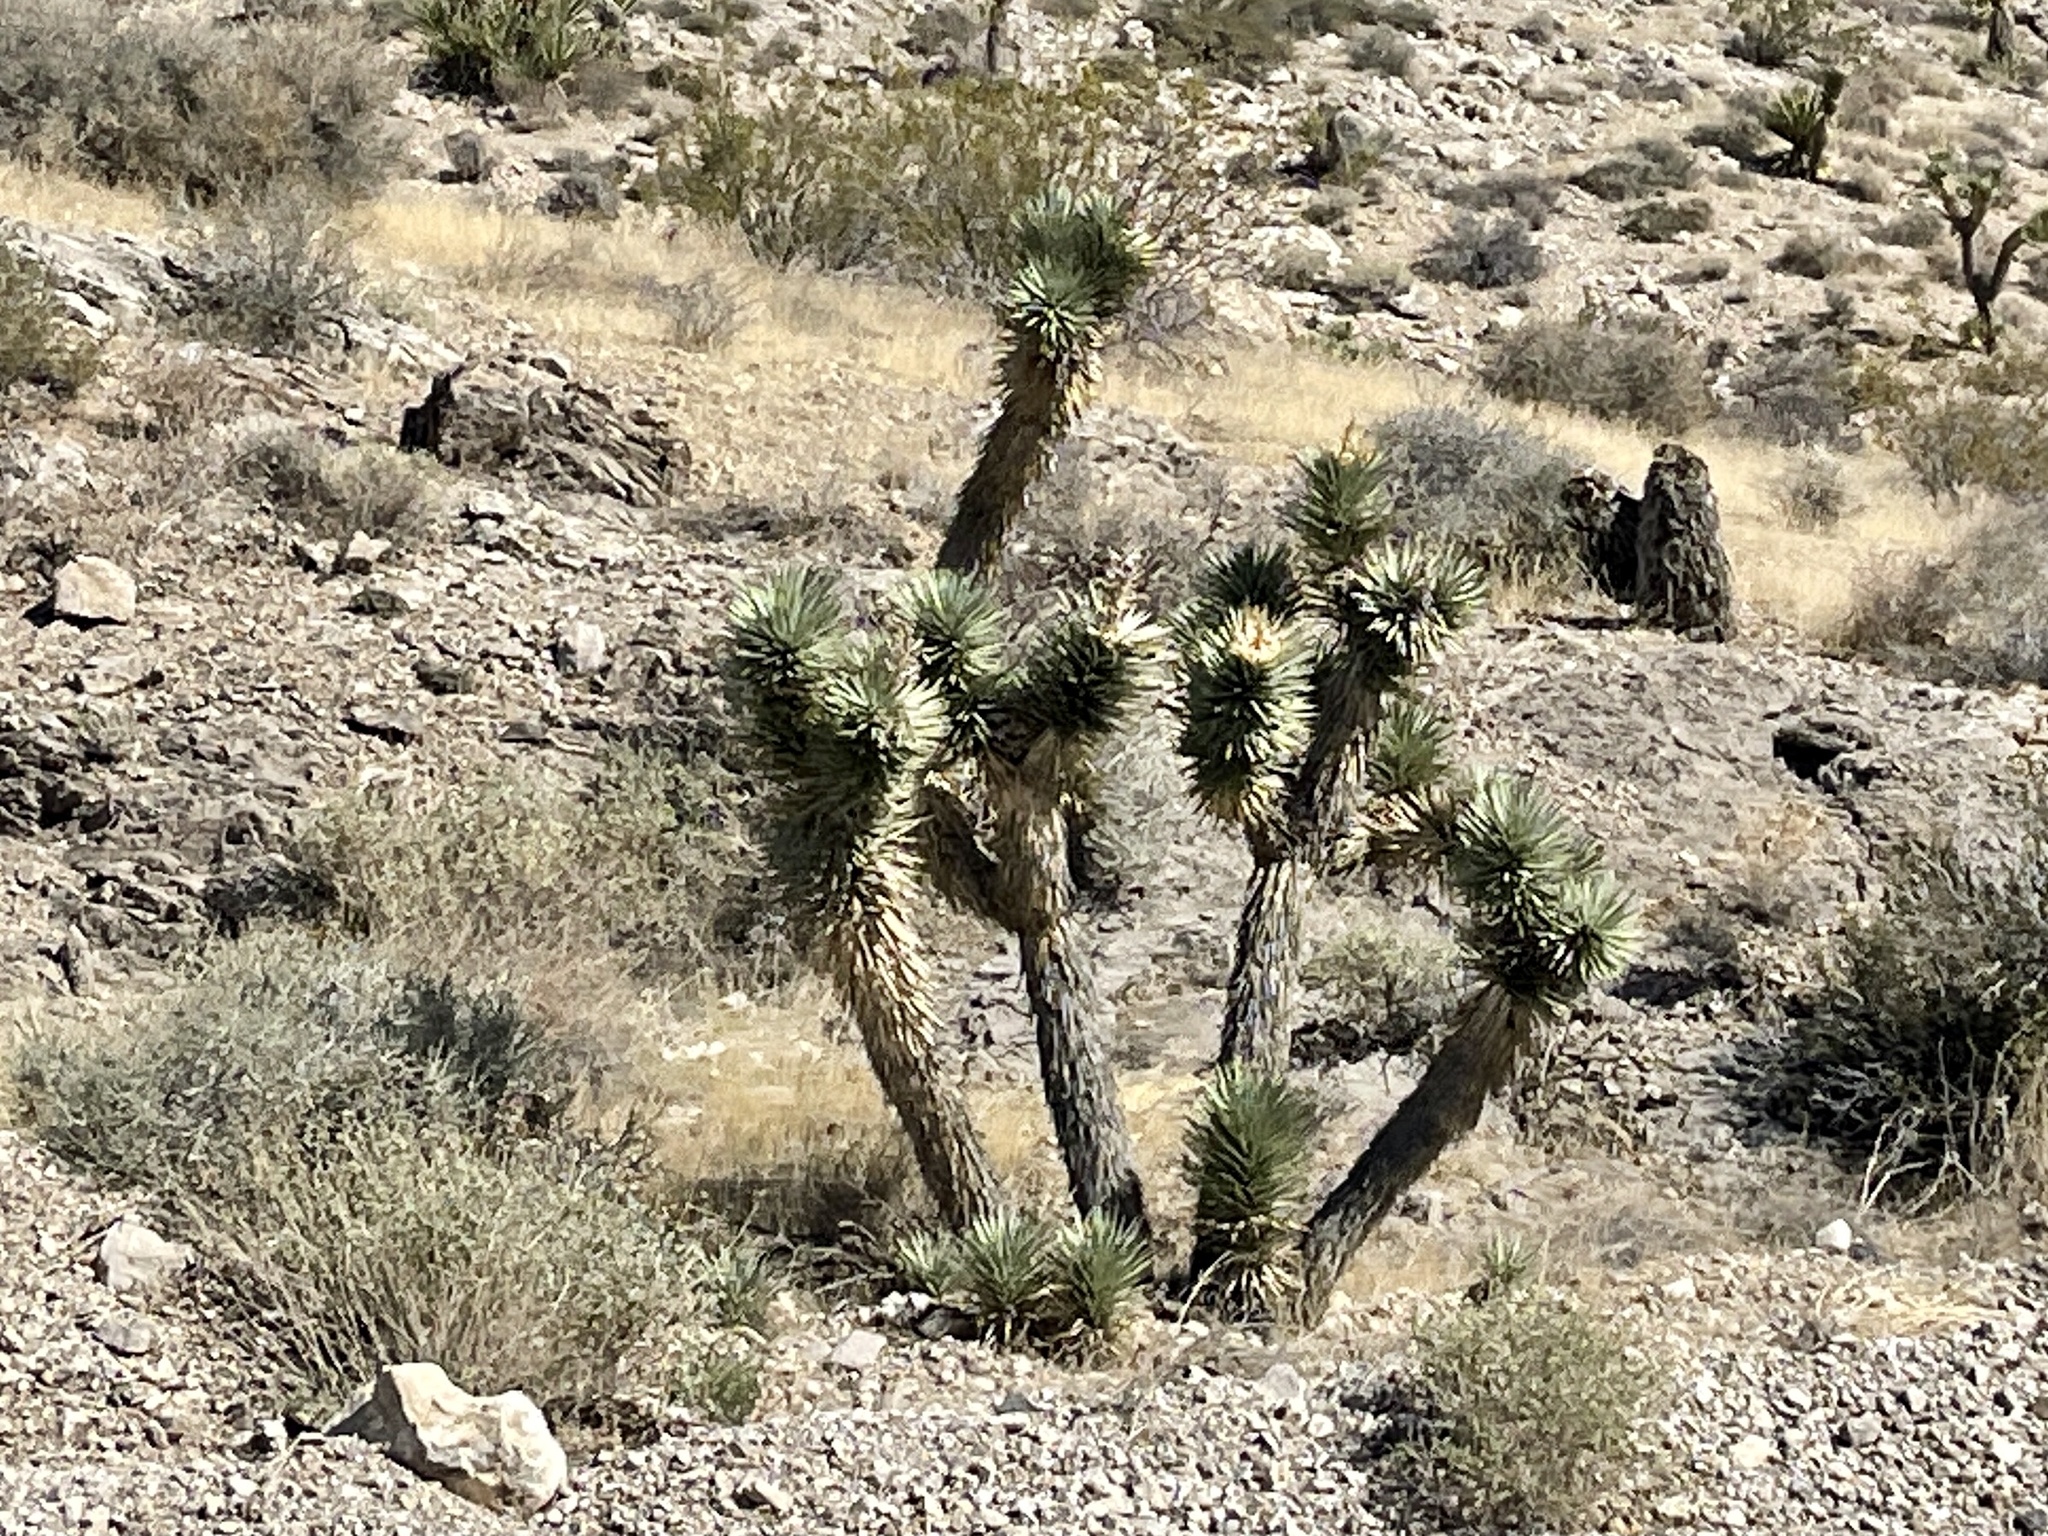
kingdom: Plantae
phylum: Tracheophyta
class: Liliopsida
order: Asparagales
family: Asparagaceae
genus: Yucca
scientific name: Yucca brevifolia
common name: Joshua tree
